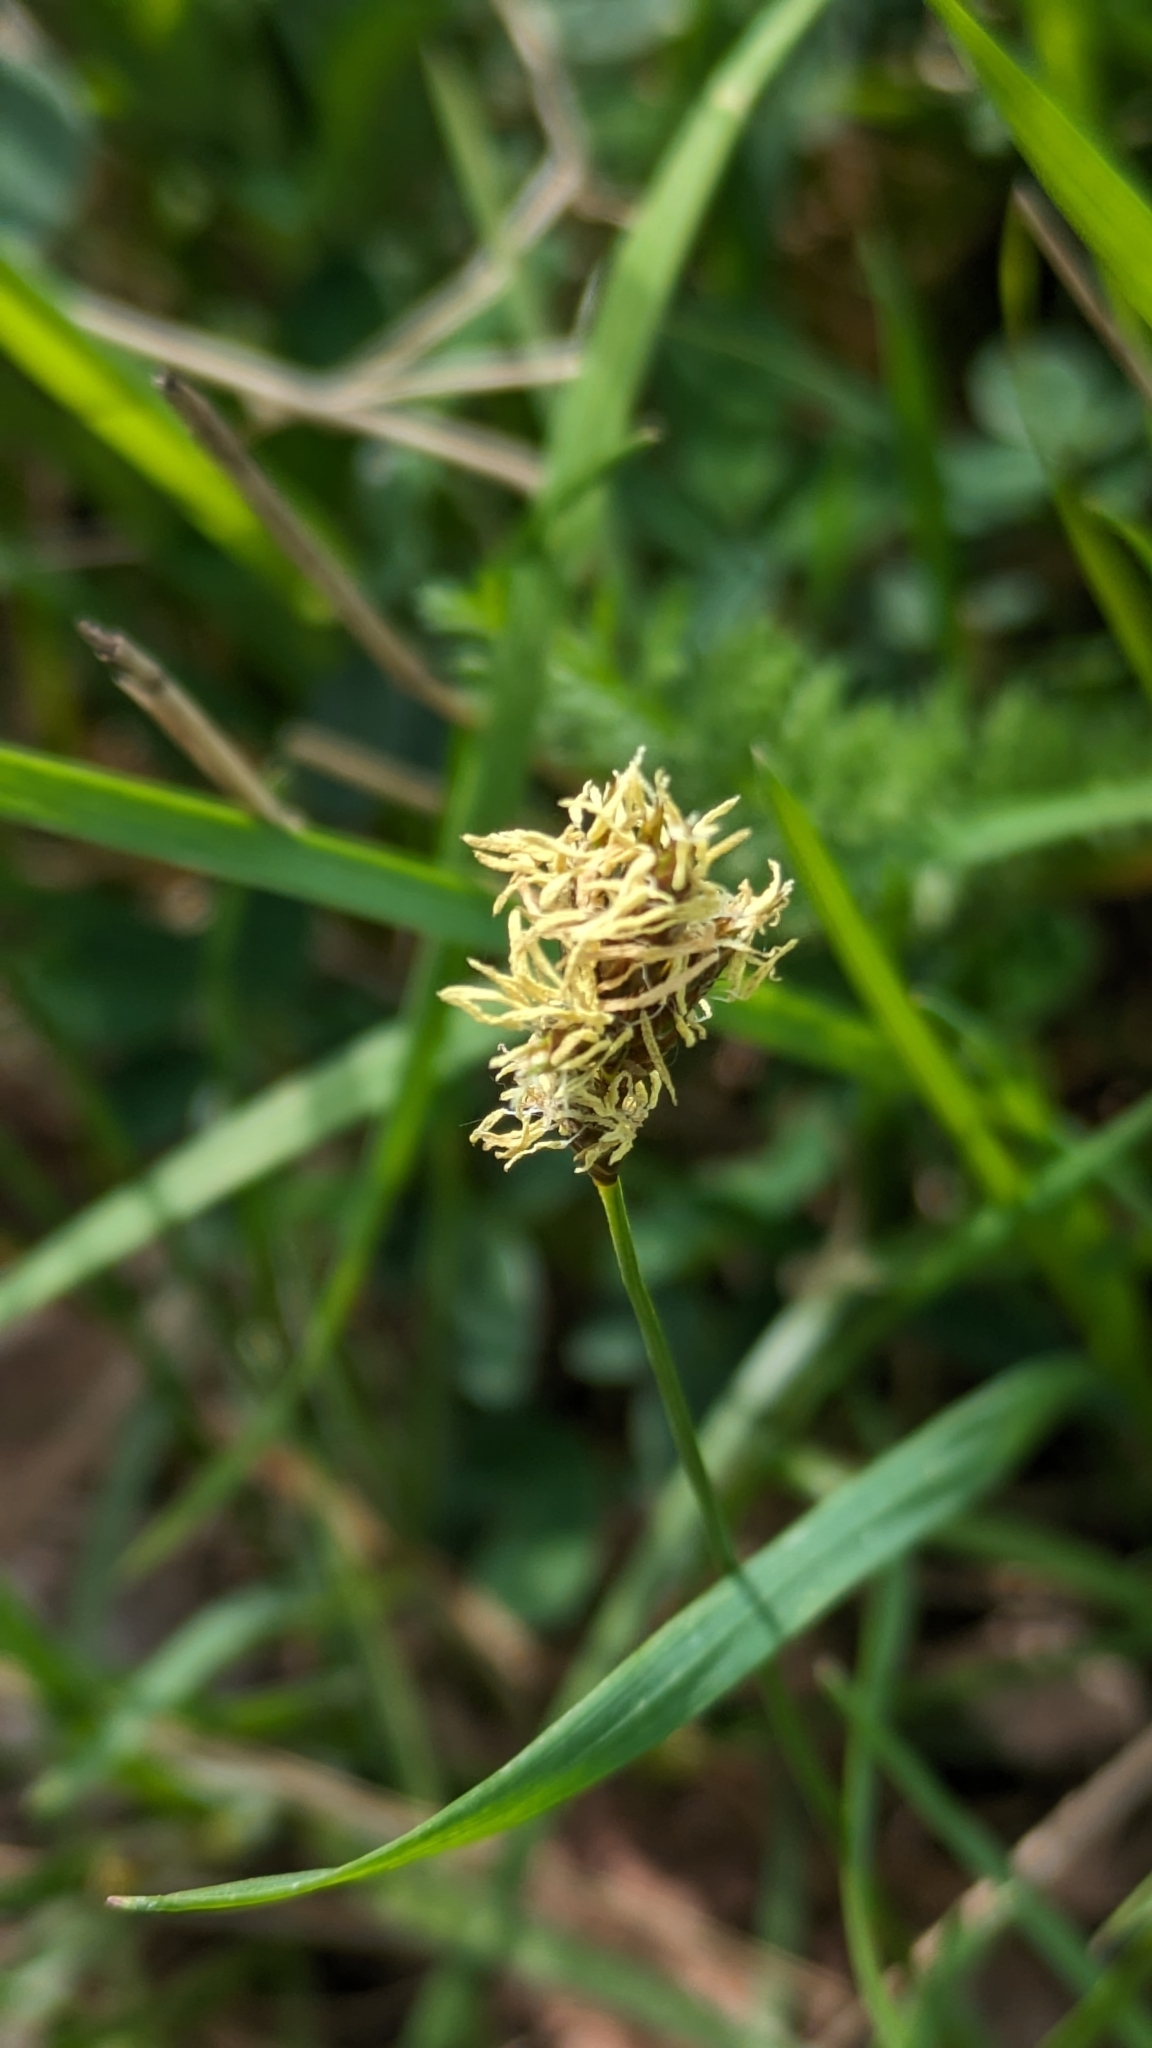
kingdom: Plantae
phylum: Tracheophyta
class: Liliopsida
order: Poales
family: Cyperaceae
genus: Carex
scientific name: Carex praecox
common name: Early sedge
